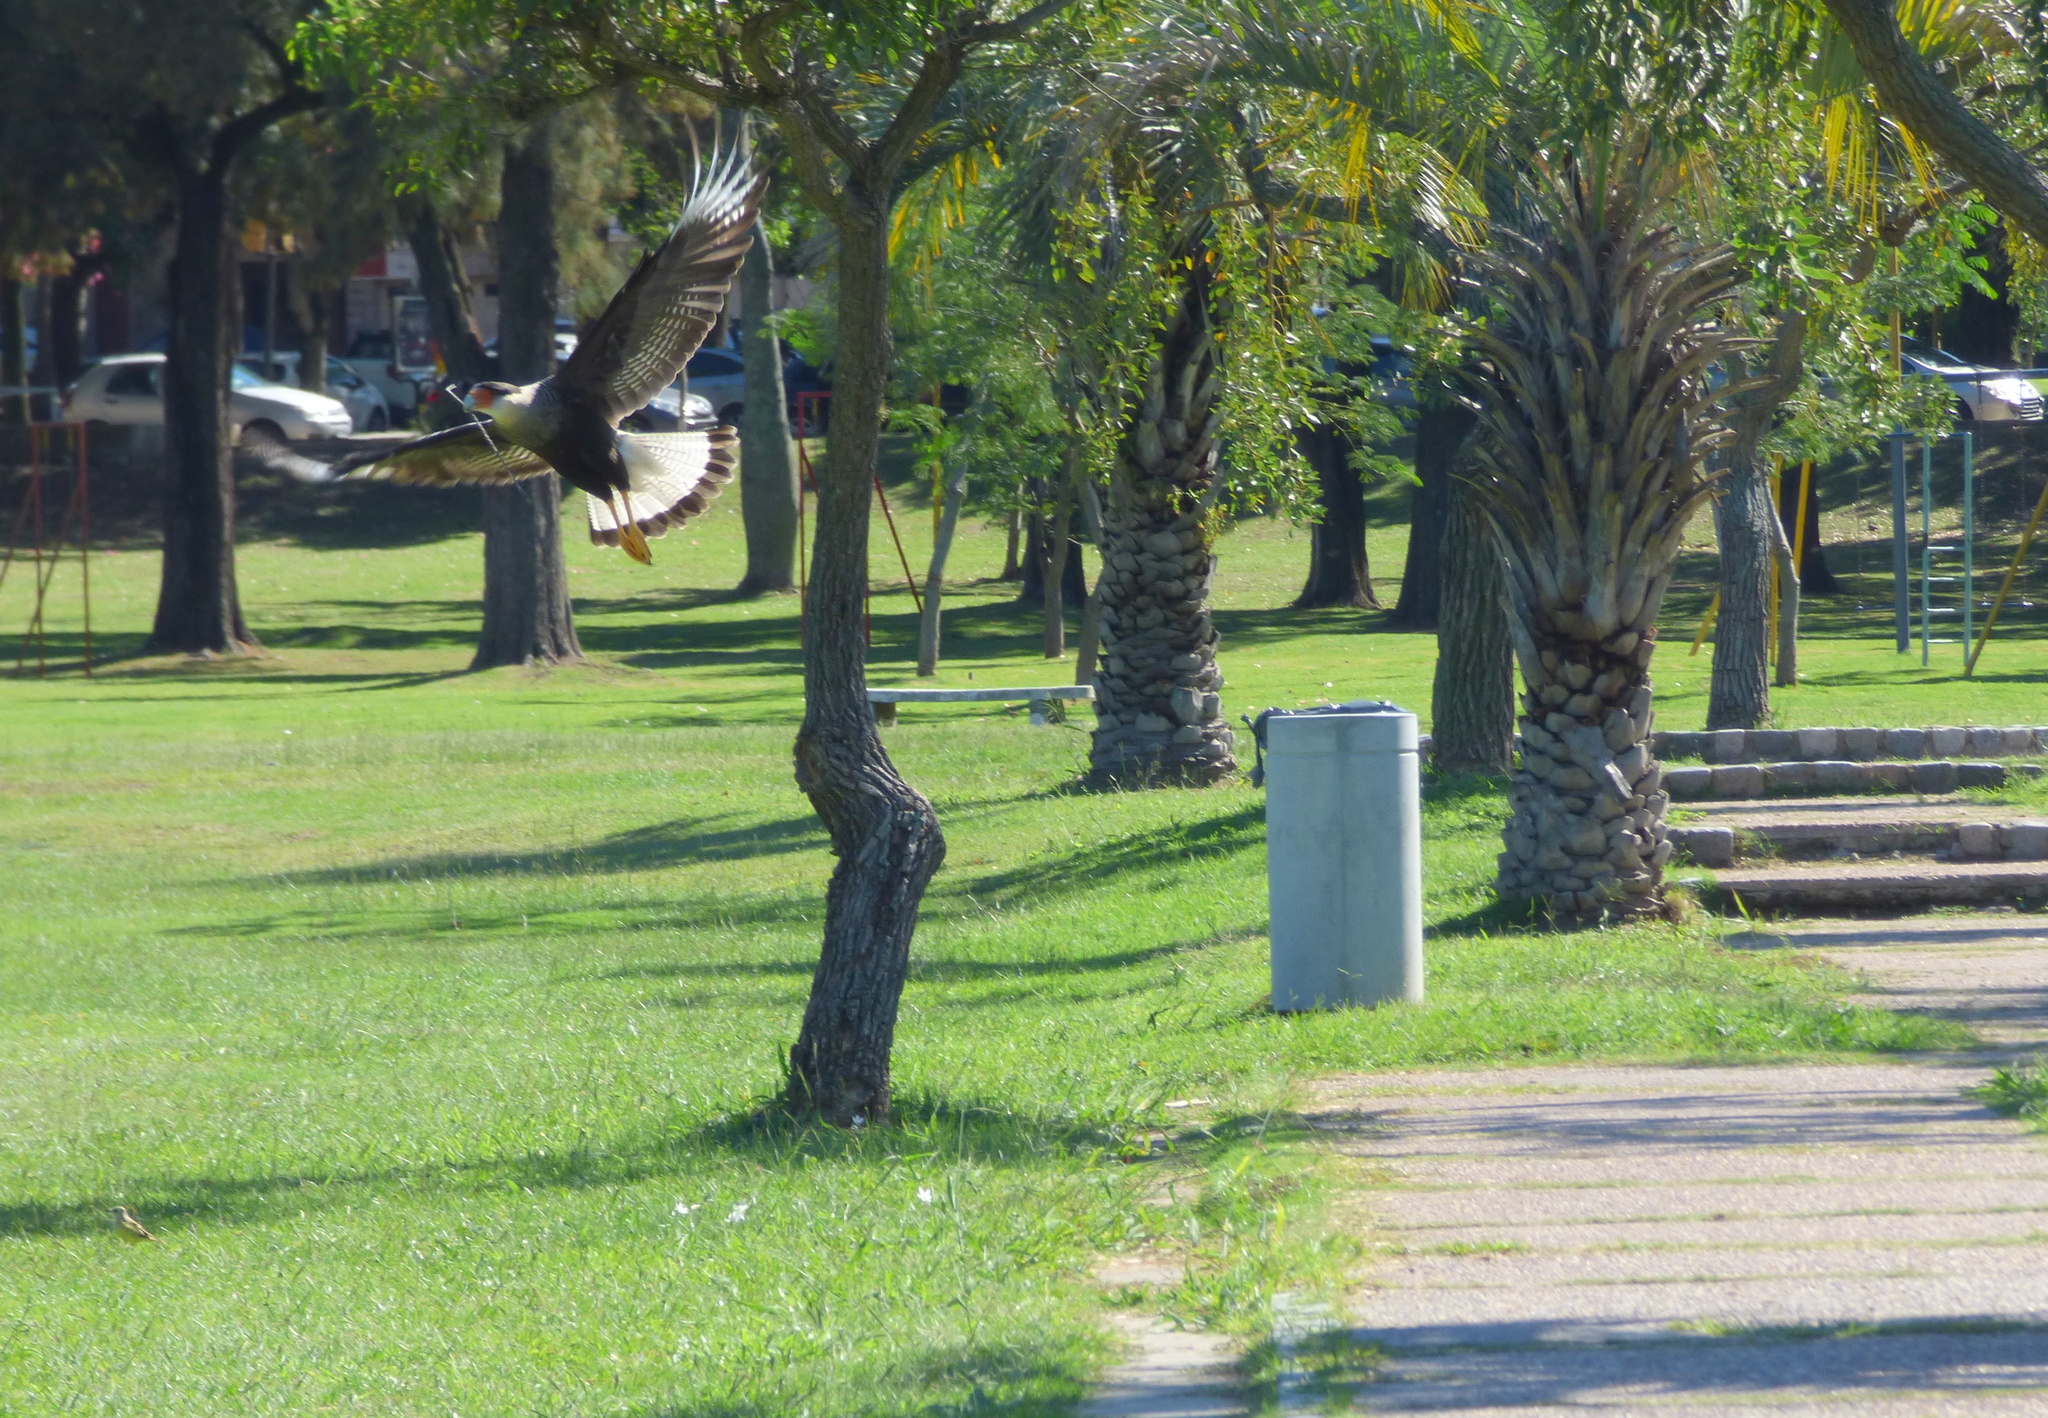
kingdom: Animalia
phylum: Chordata
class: Aves
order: Falconiformes
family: Falconidae
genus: Caracara
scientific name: Caracara plancus
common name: Southern caracara
